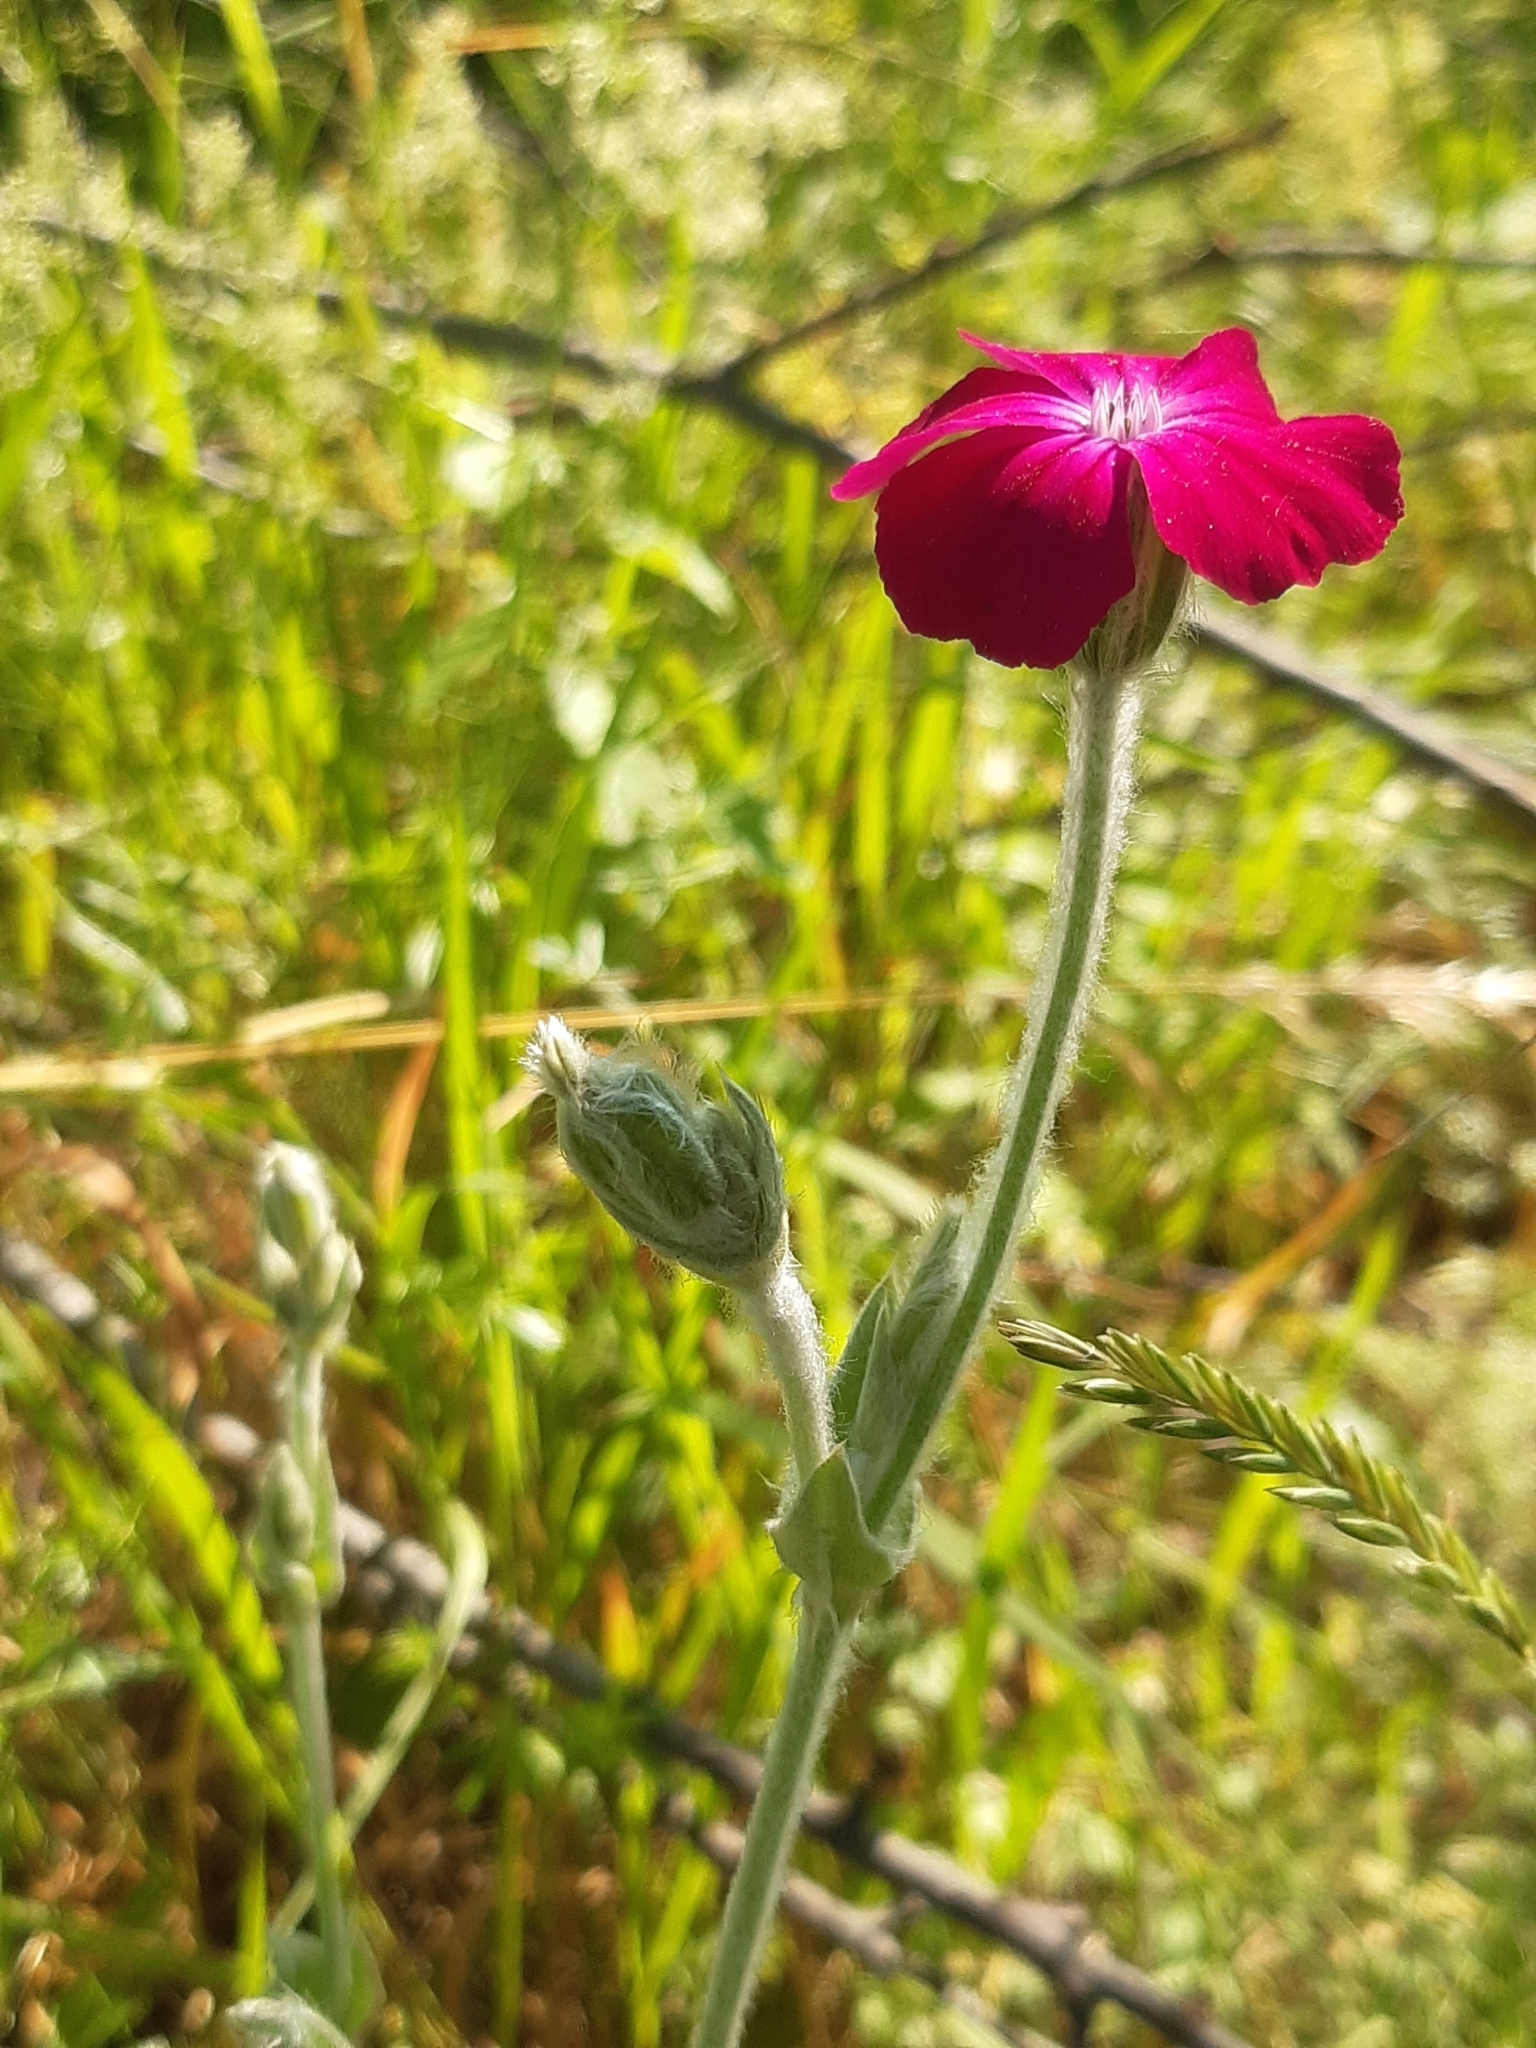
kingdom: Plantae
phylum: Tracheophyta
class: Magnoliopsida
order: Caryophyllales
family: Caryophyllaceae
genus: Silene
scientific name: Silene coronaria
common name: Rose campion
